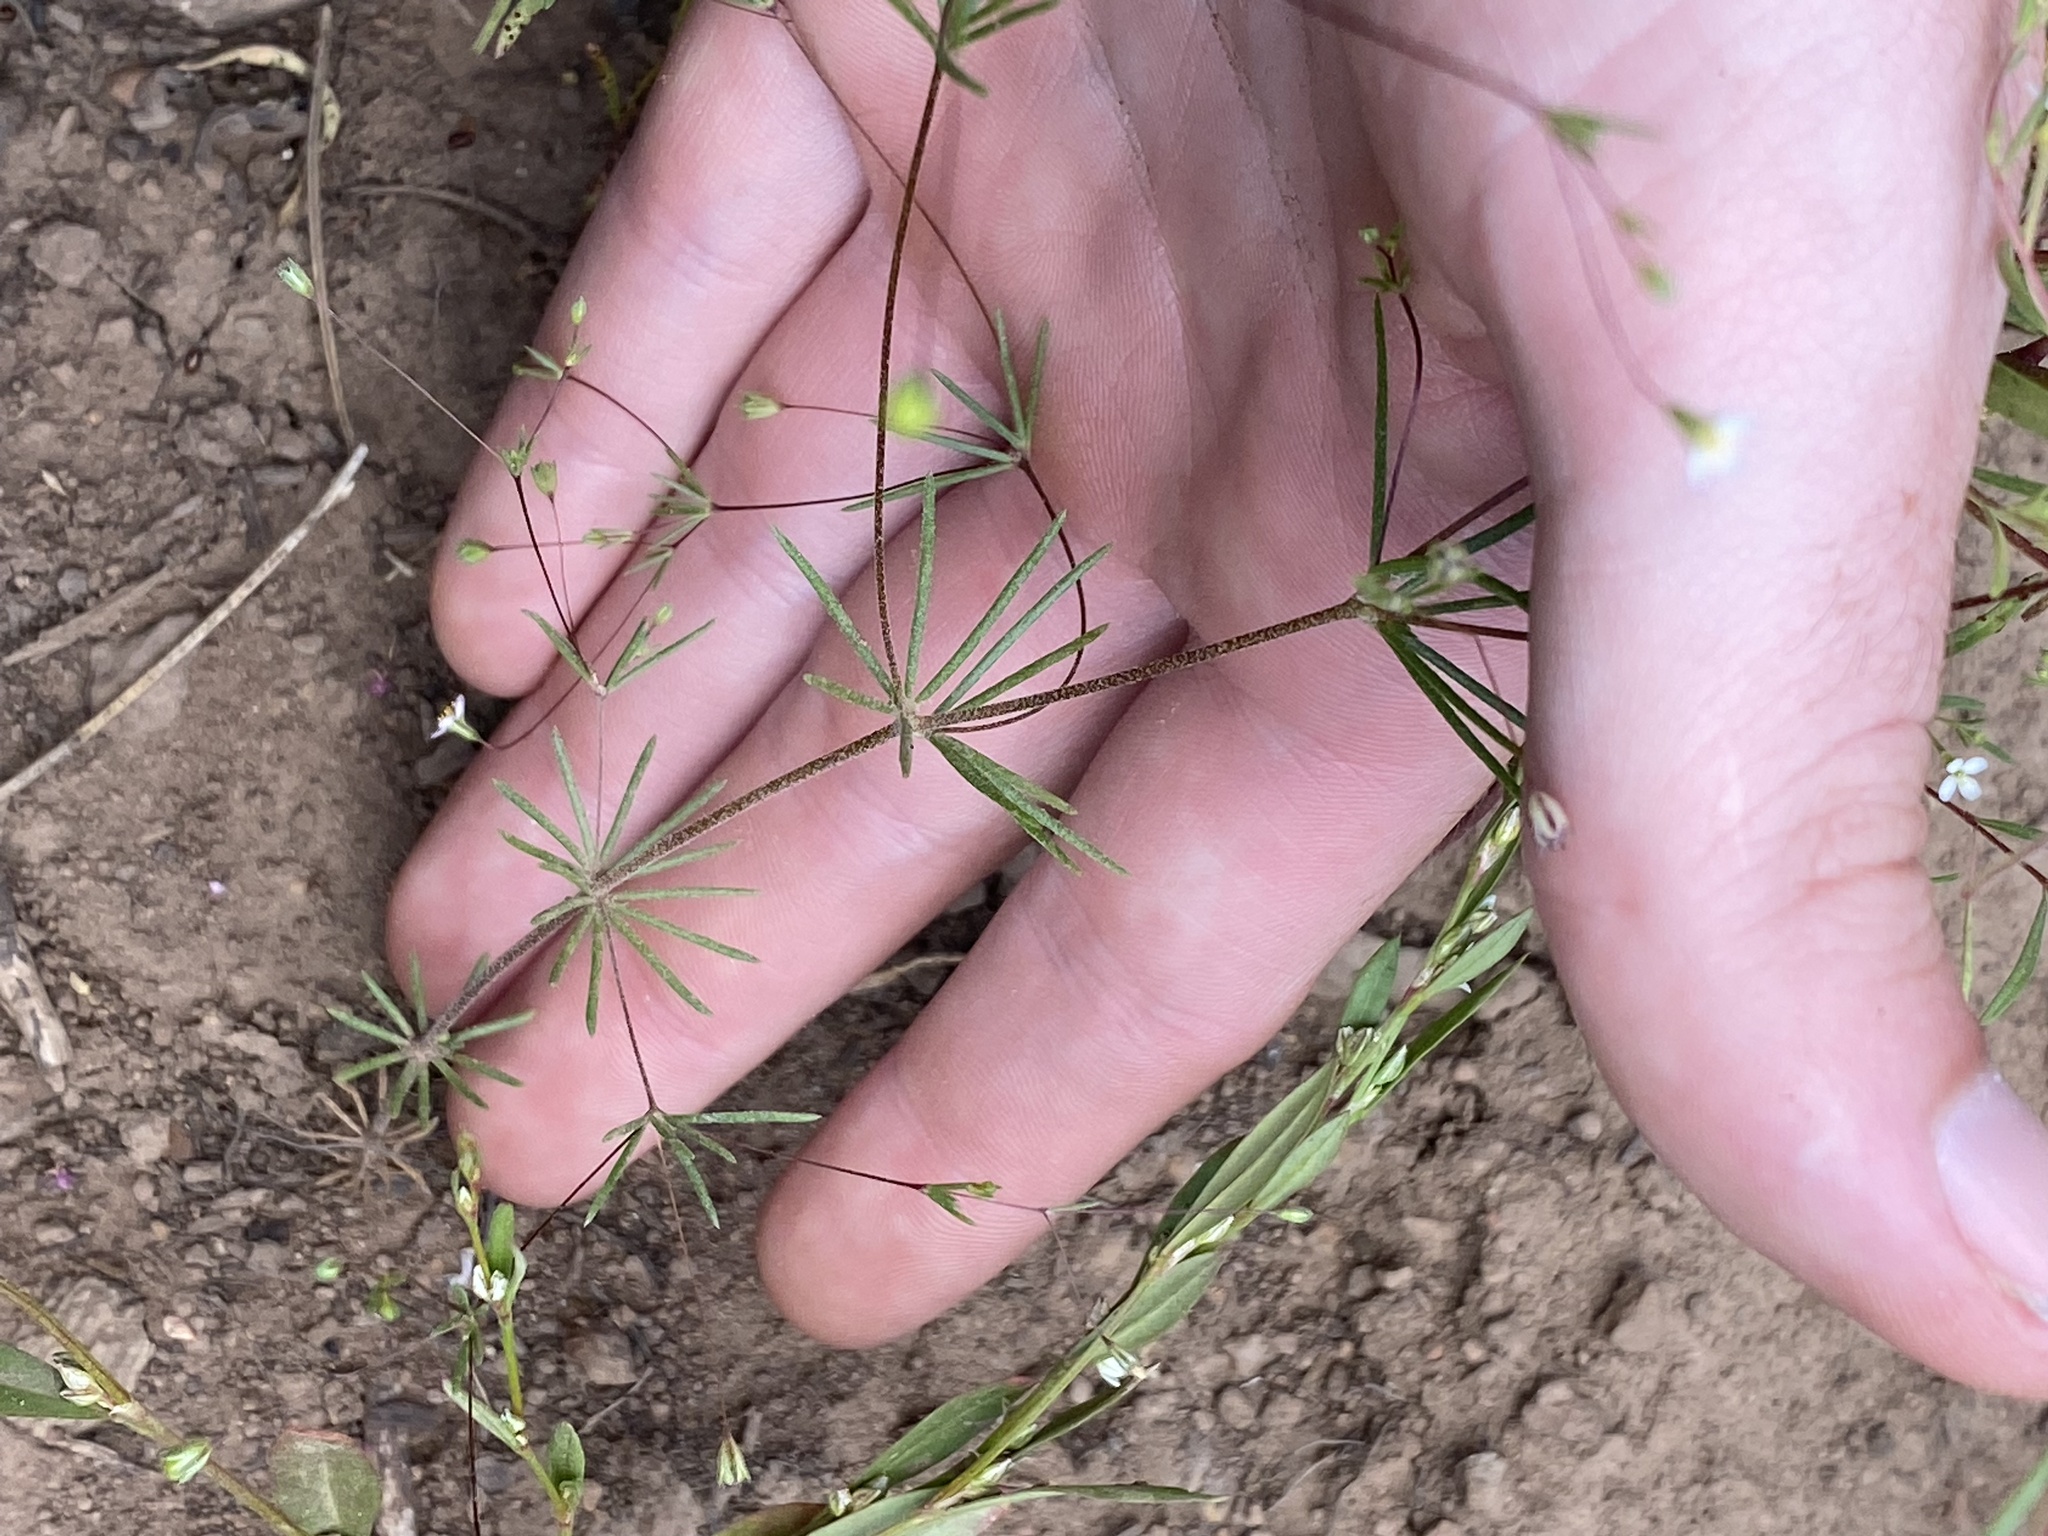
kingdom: Plantae
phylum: Tracheophyta
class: Magnoliopsida
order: Ericales
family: Polemoniaceae
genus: Linanthus
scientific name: Linanthus harknessii
